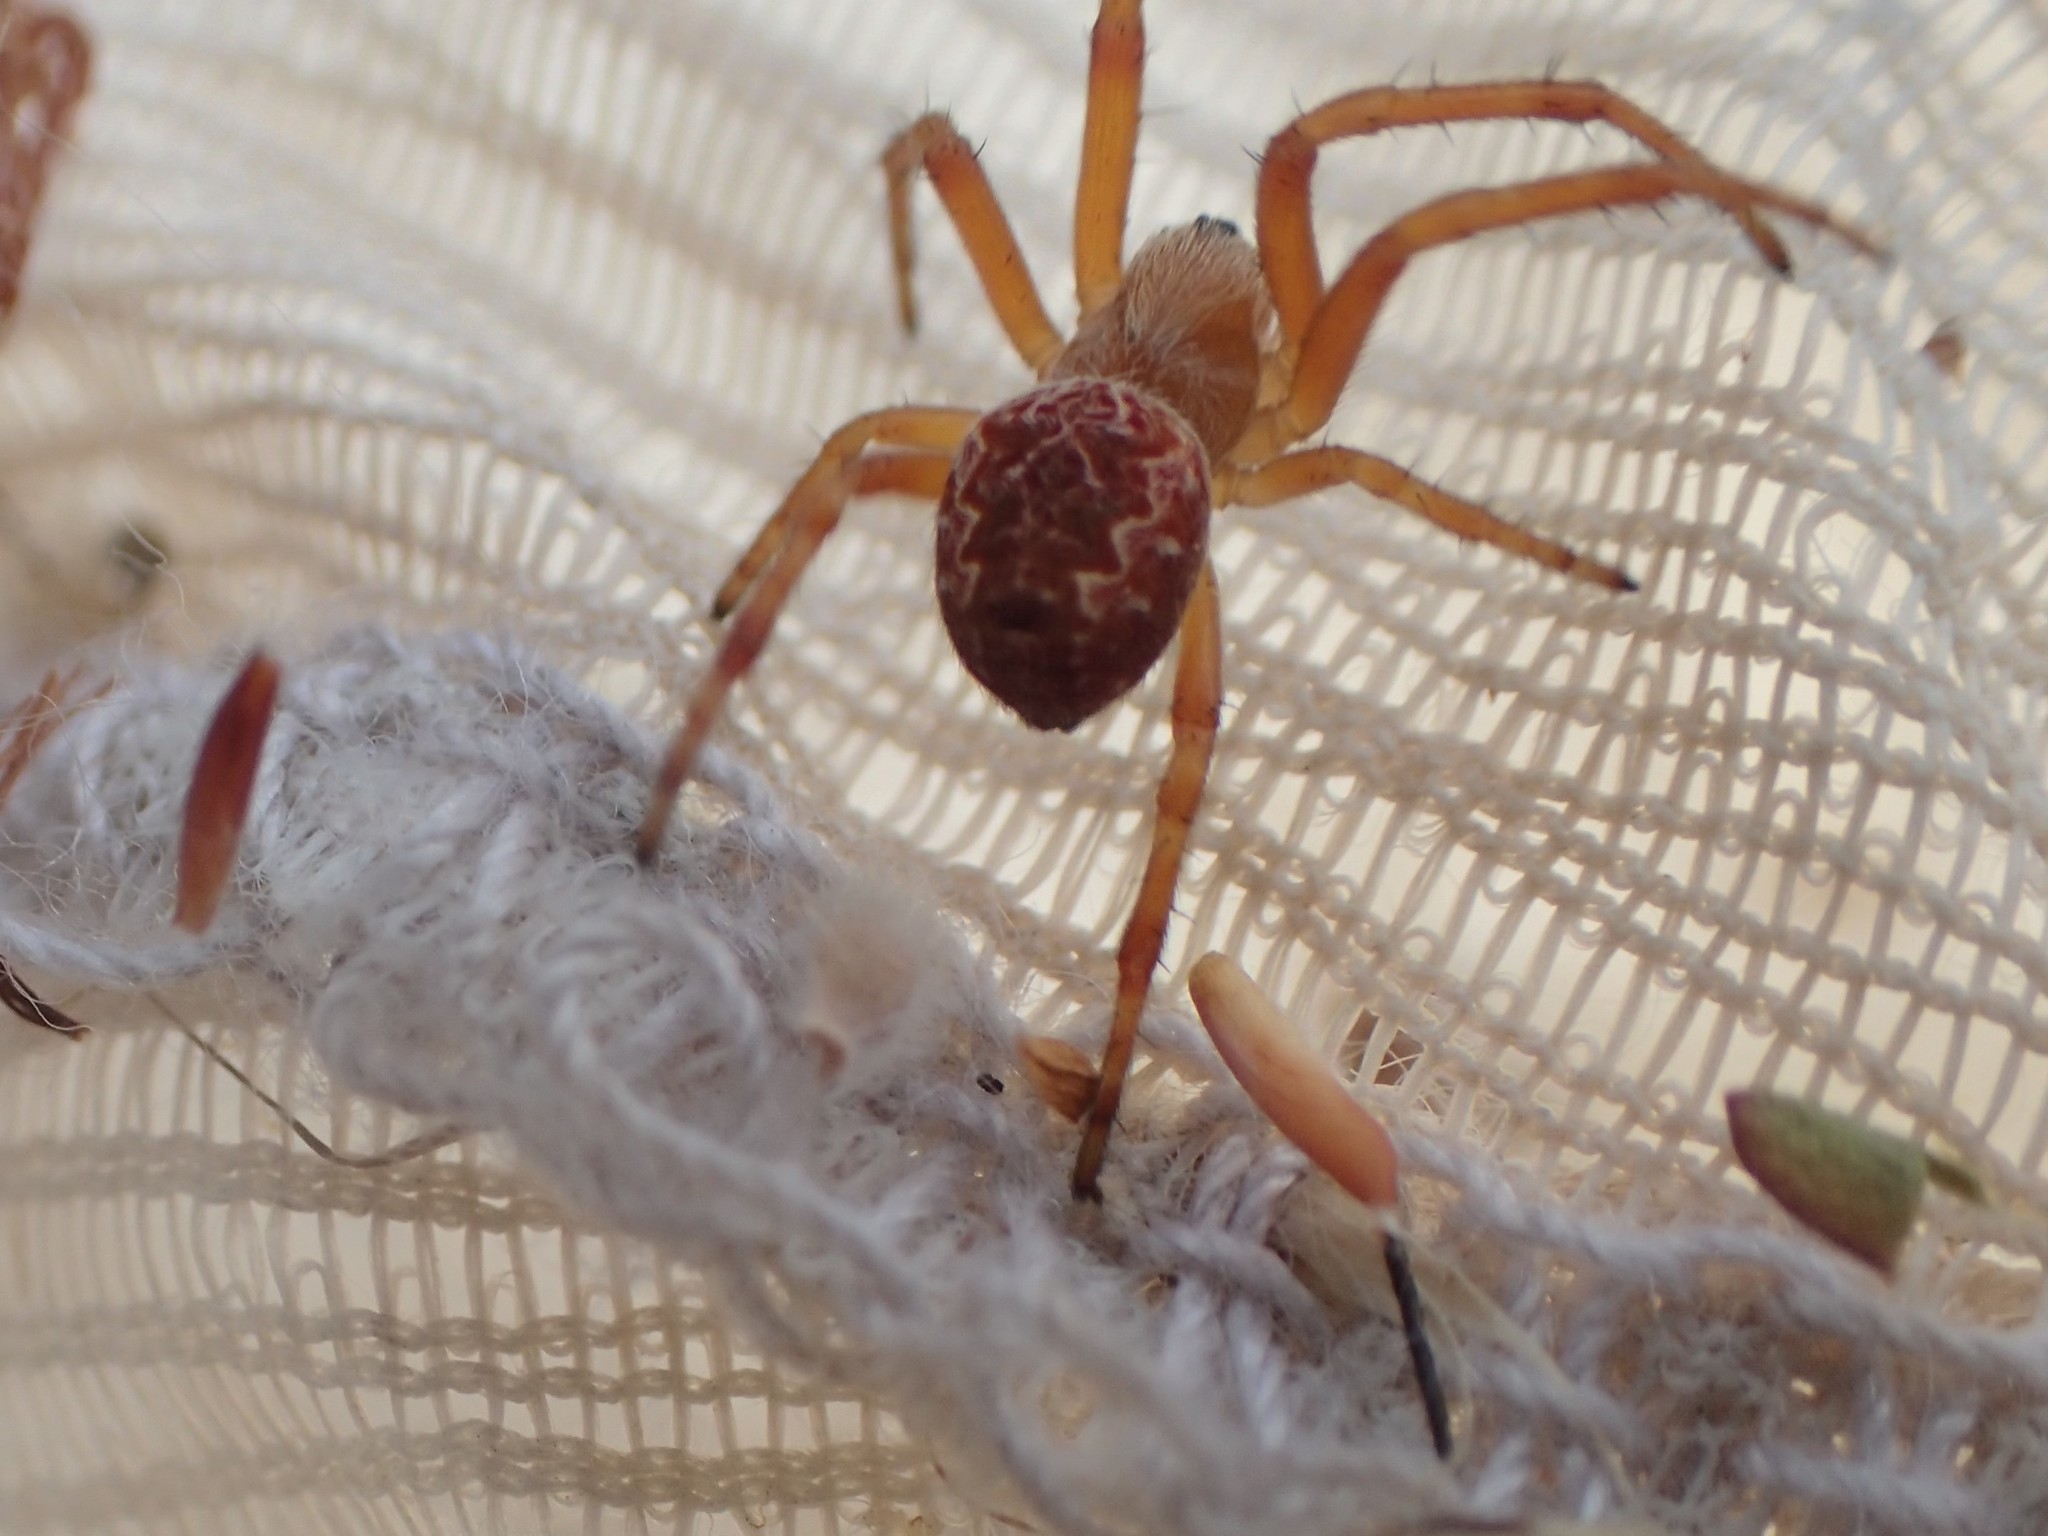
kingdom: Animalia
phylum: Arthropoda
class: Arachnida
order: Araneae
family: Araneidae
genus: Salsa
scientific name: Salsa fuliginata
